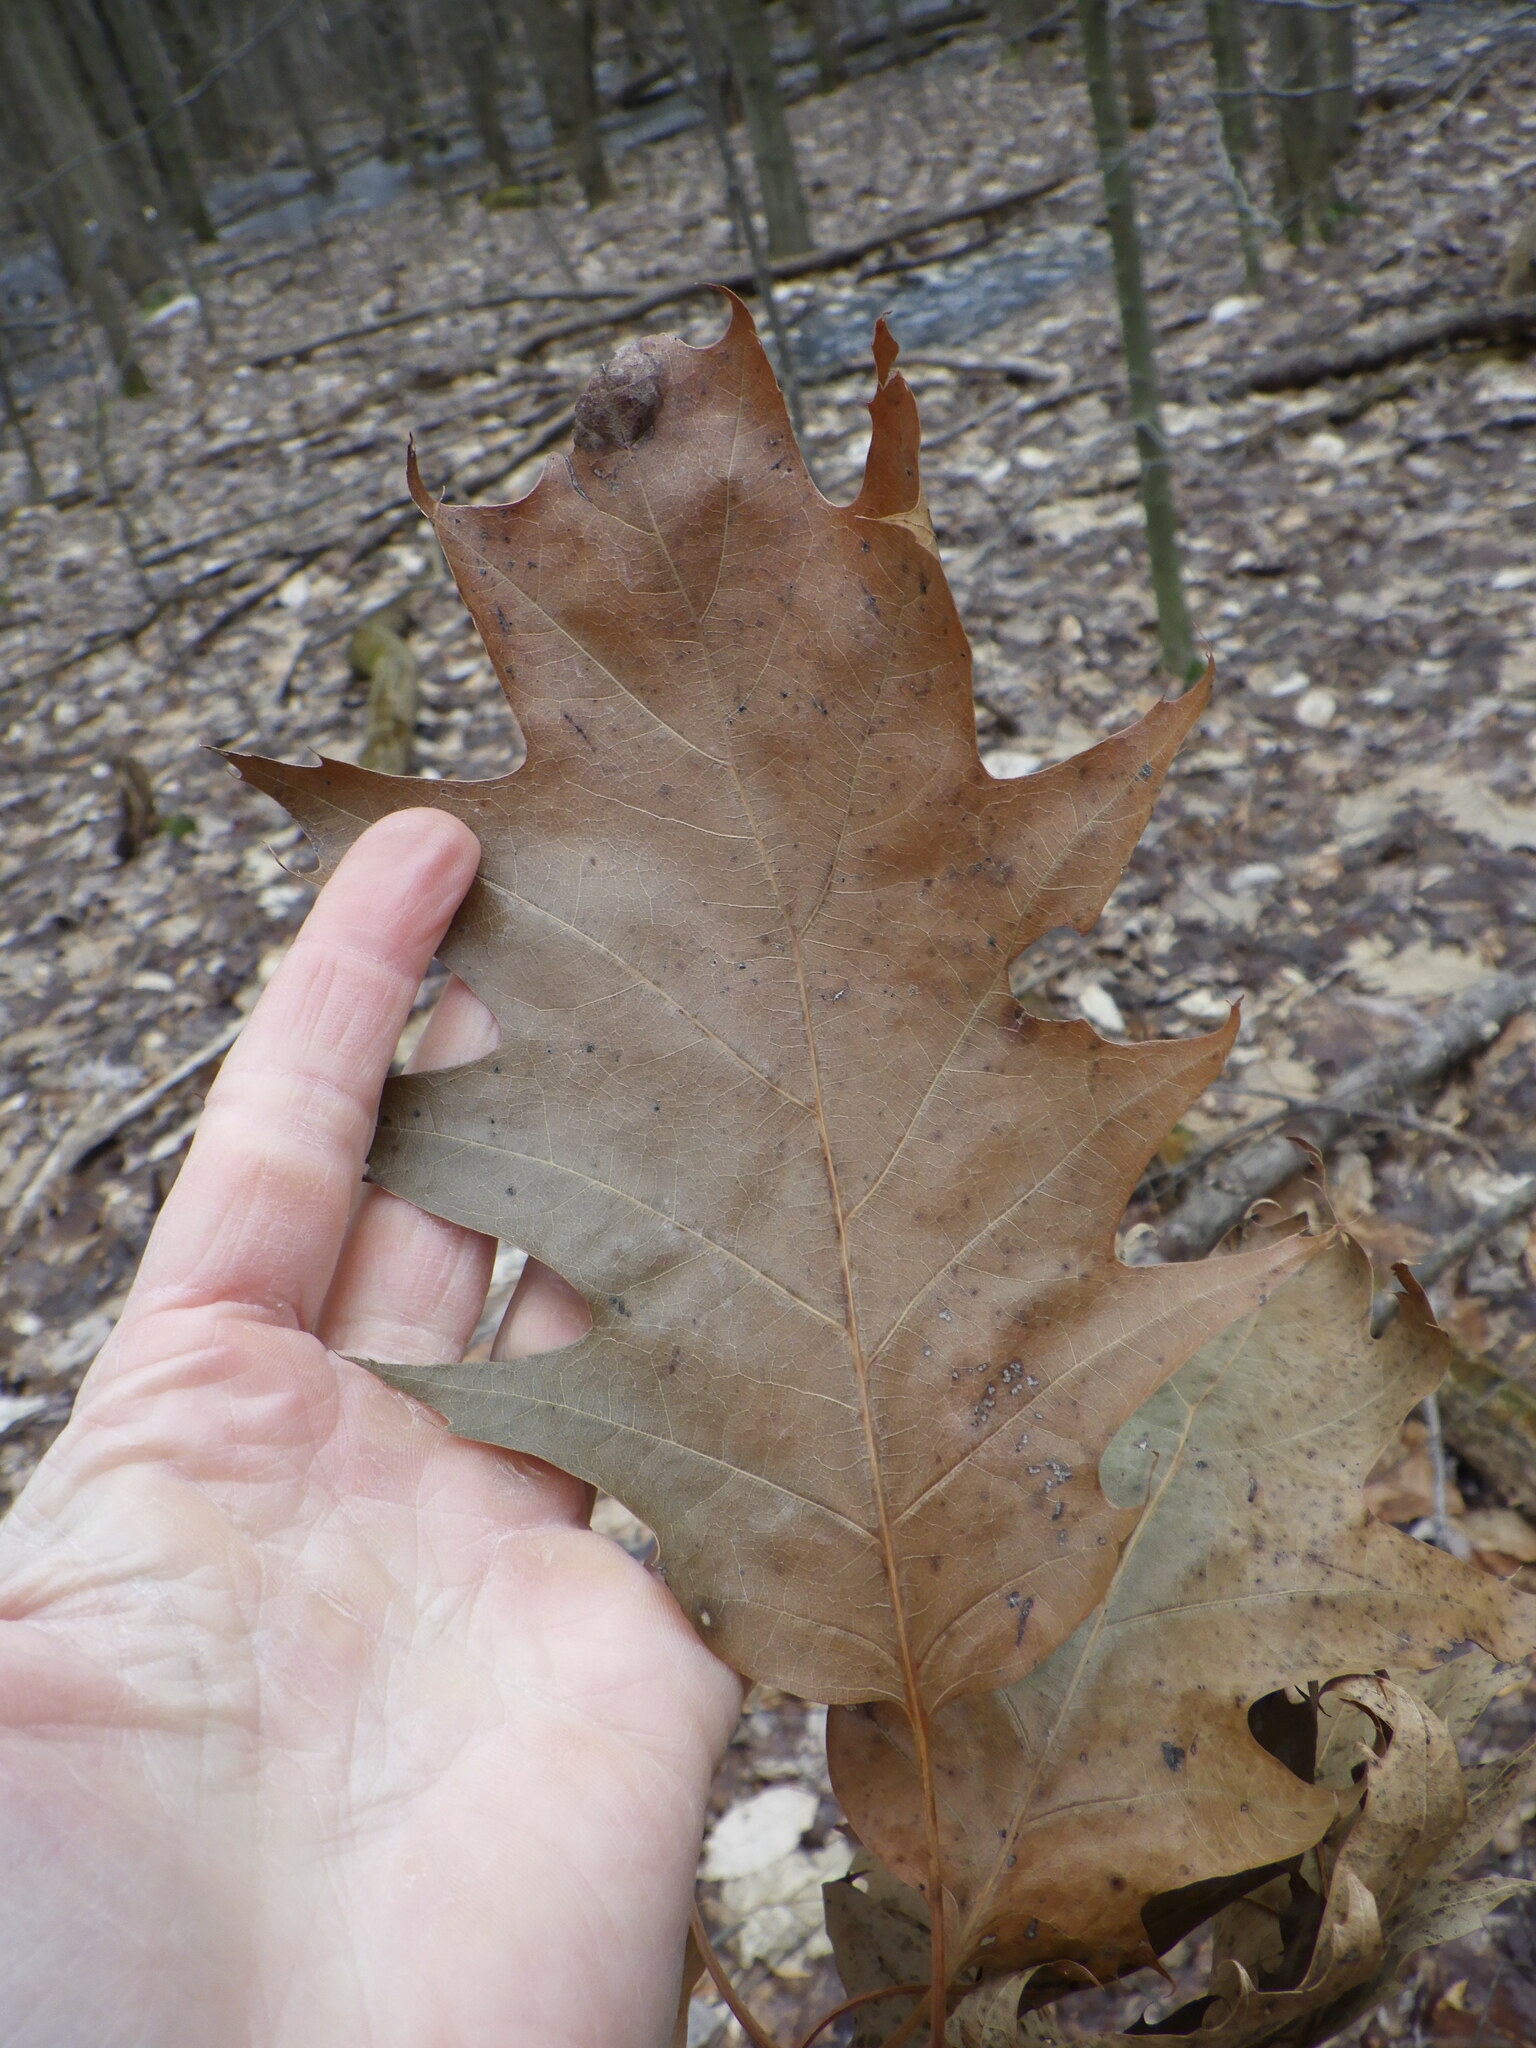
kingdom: Plantae
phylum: Tracheophyta
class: Magnoliopsida
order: Fagales
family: Fagaceae
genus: Quercus
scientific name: Quercus rubra
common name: Red oak
